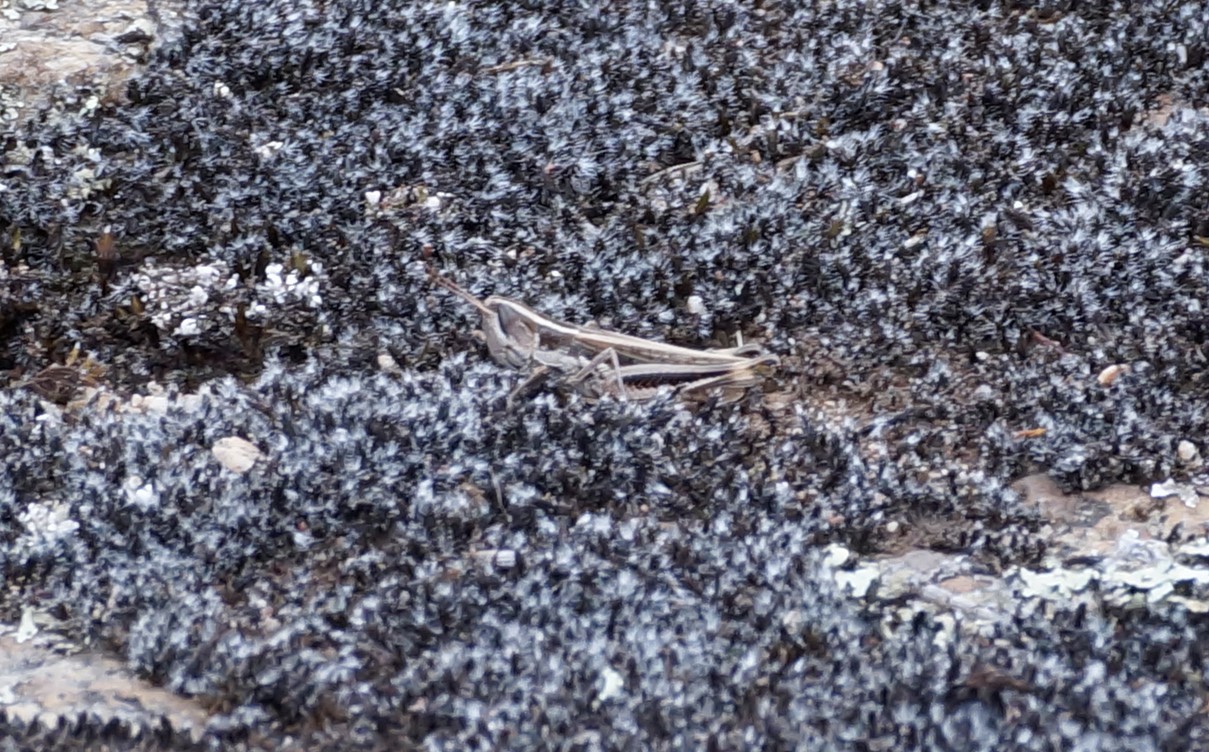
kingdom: Animalia
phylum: Arthropoda
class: Insecta
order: Orthoptera
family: Acrididae
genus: Macrotona
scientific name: Macrotona securiformis
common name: Inland macrotona
